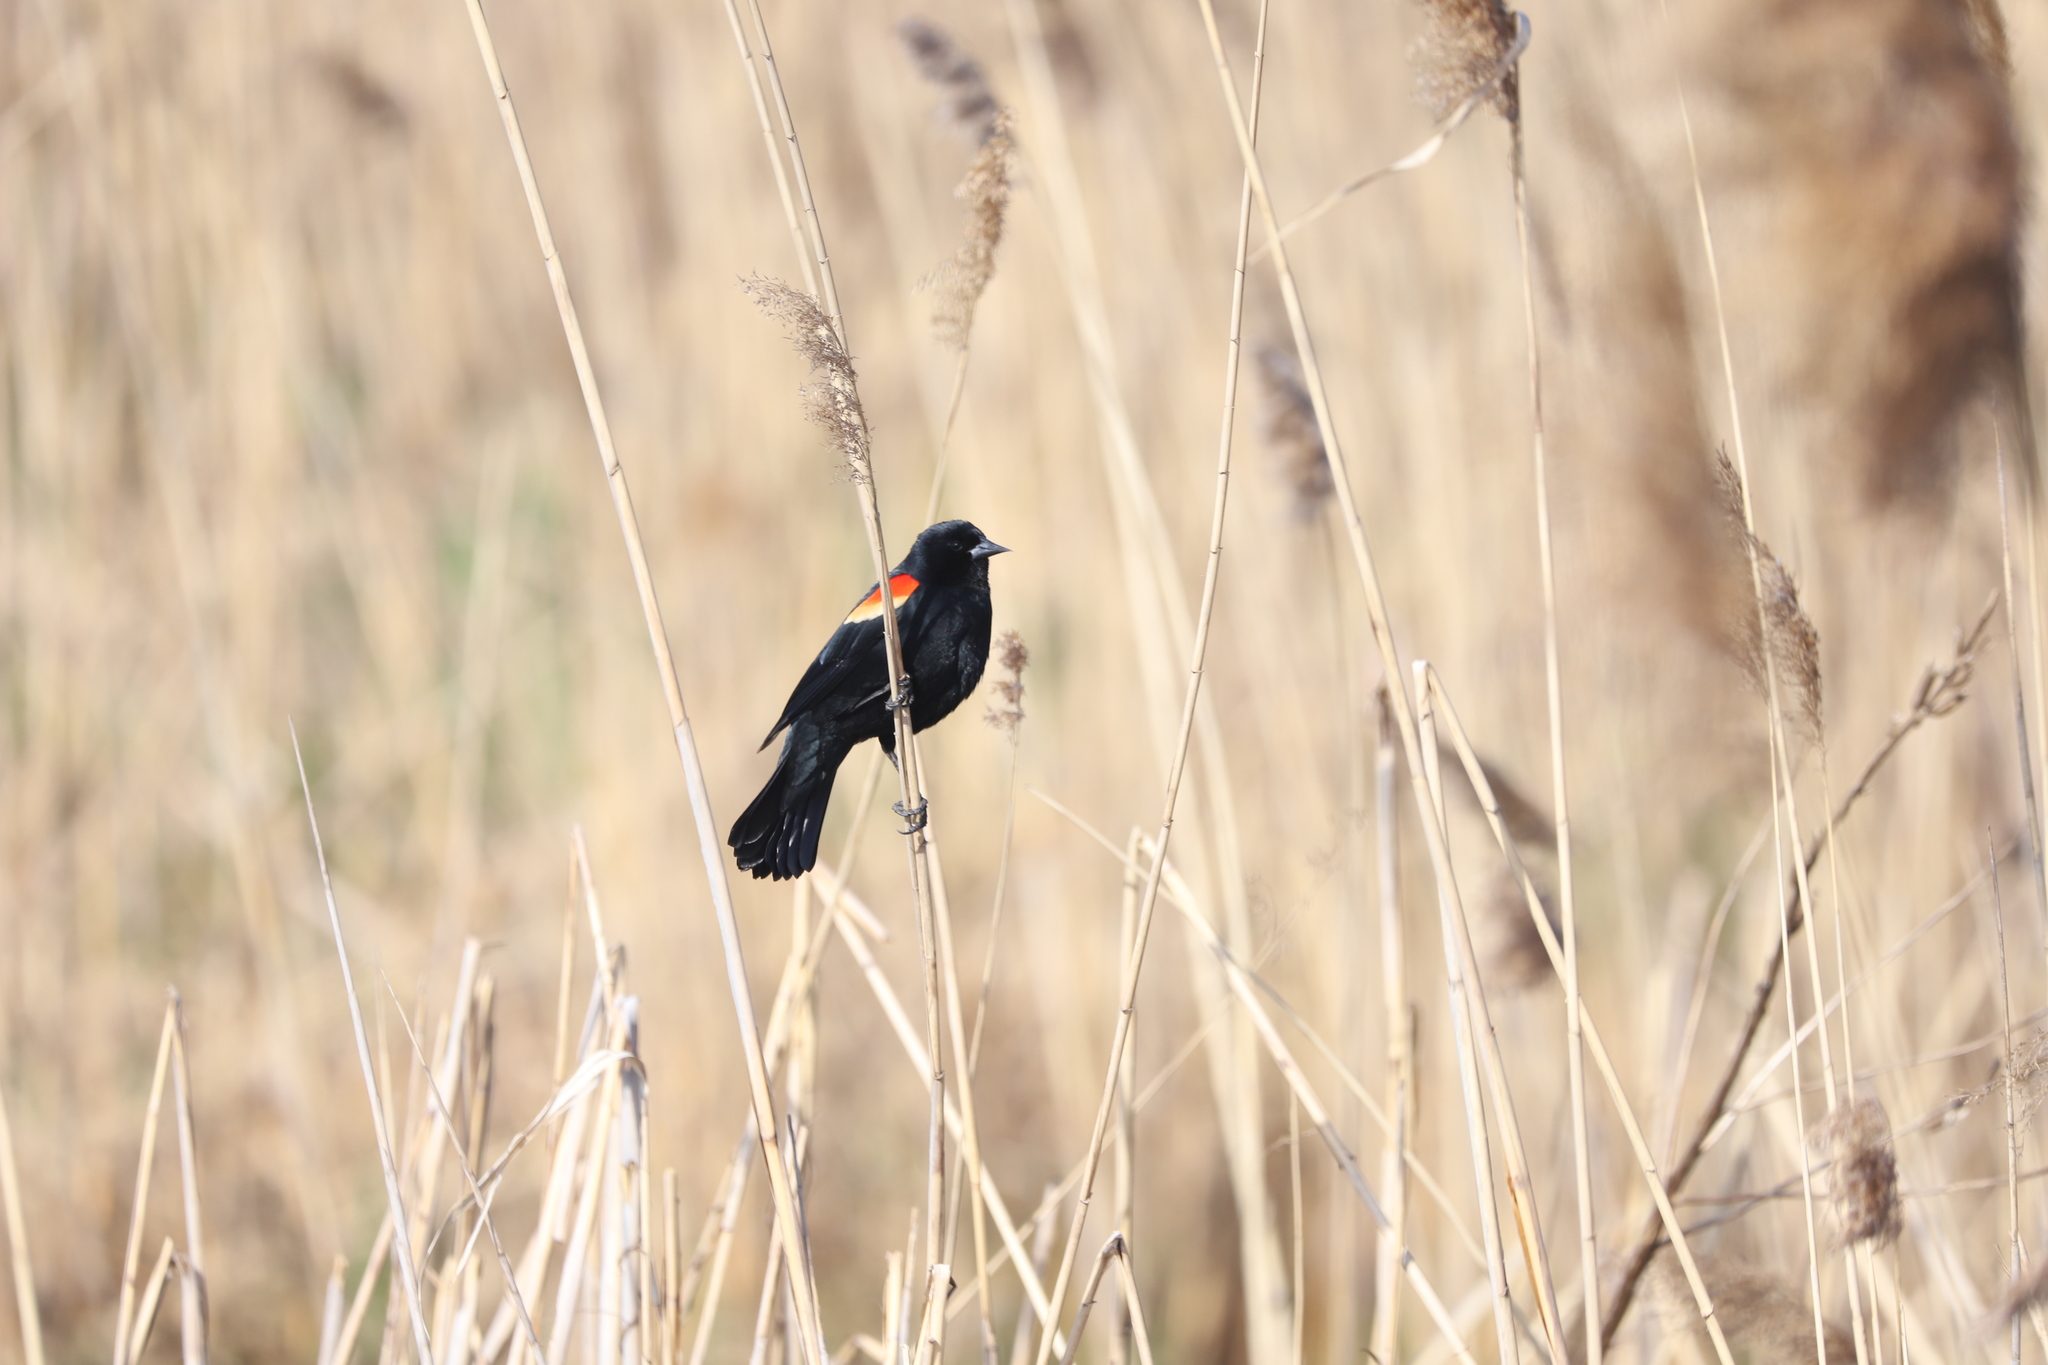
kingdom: Animalia
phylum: Chordata
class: Aves
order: Passeriformes
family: Icteridae
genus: Agelaius
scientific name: Agelaius phoeniceus
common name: Red-winged blackbird
